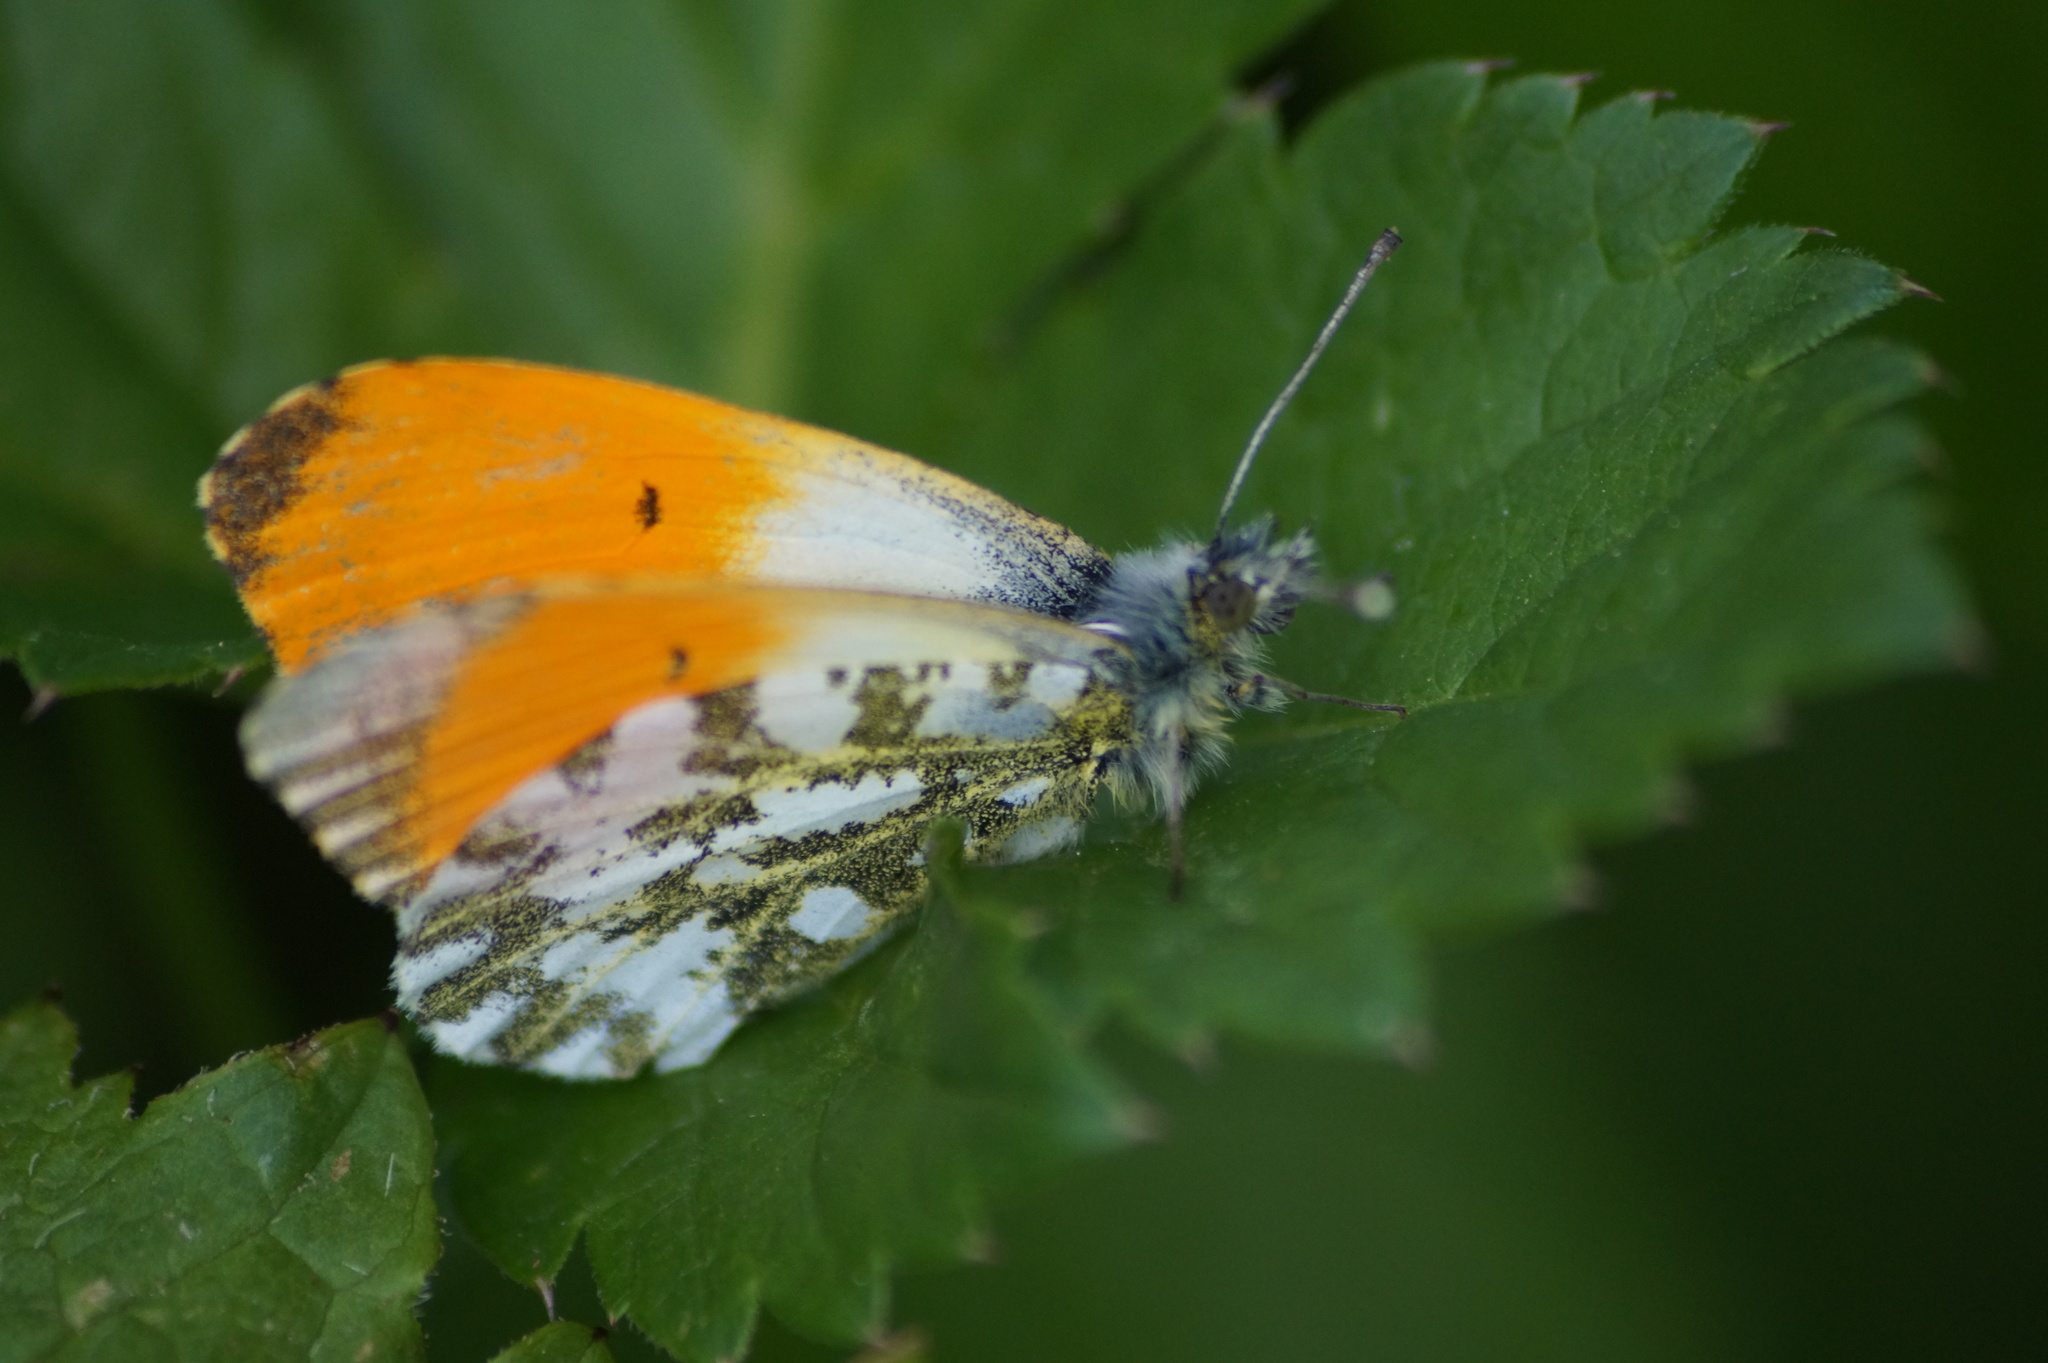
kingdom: Animalia
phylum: Arthropoda
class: Insecta
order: Lepidoptera
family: Pieridae
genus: Anthocharis
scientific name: Anthocharis cardamines
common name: Orange-tip
